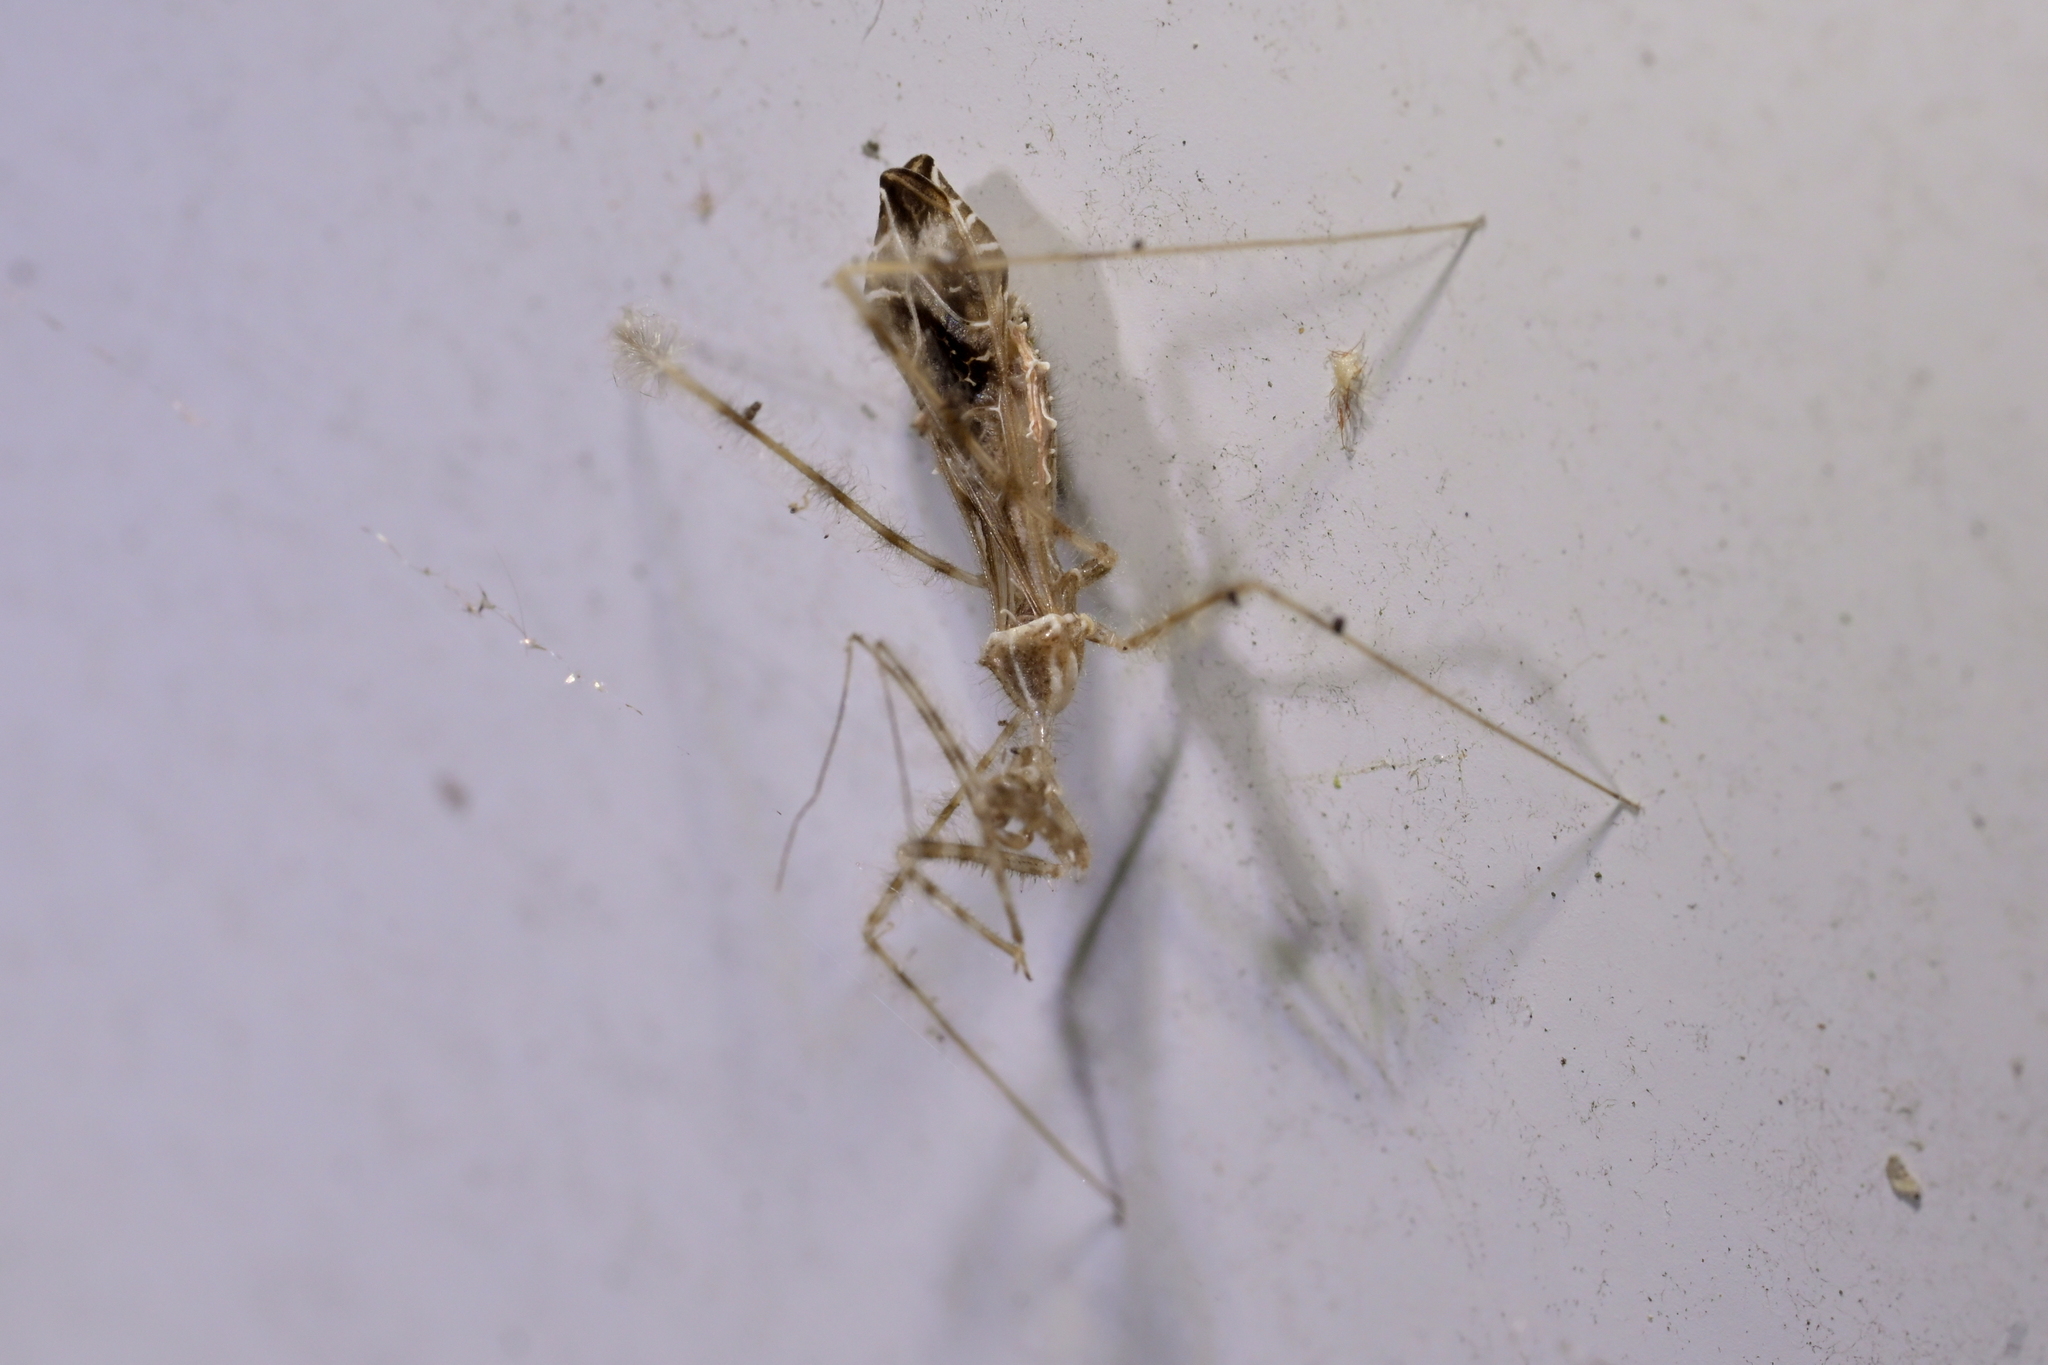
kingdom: Animalia
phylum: Arthropoda
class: Insecta
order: Hemiptera
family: Reduviidae
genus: Stenolemus
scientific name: Stenolemus fraterculus
